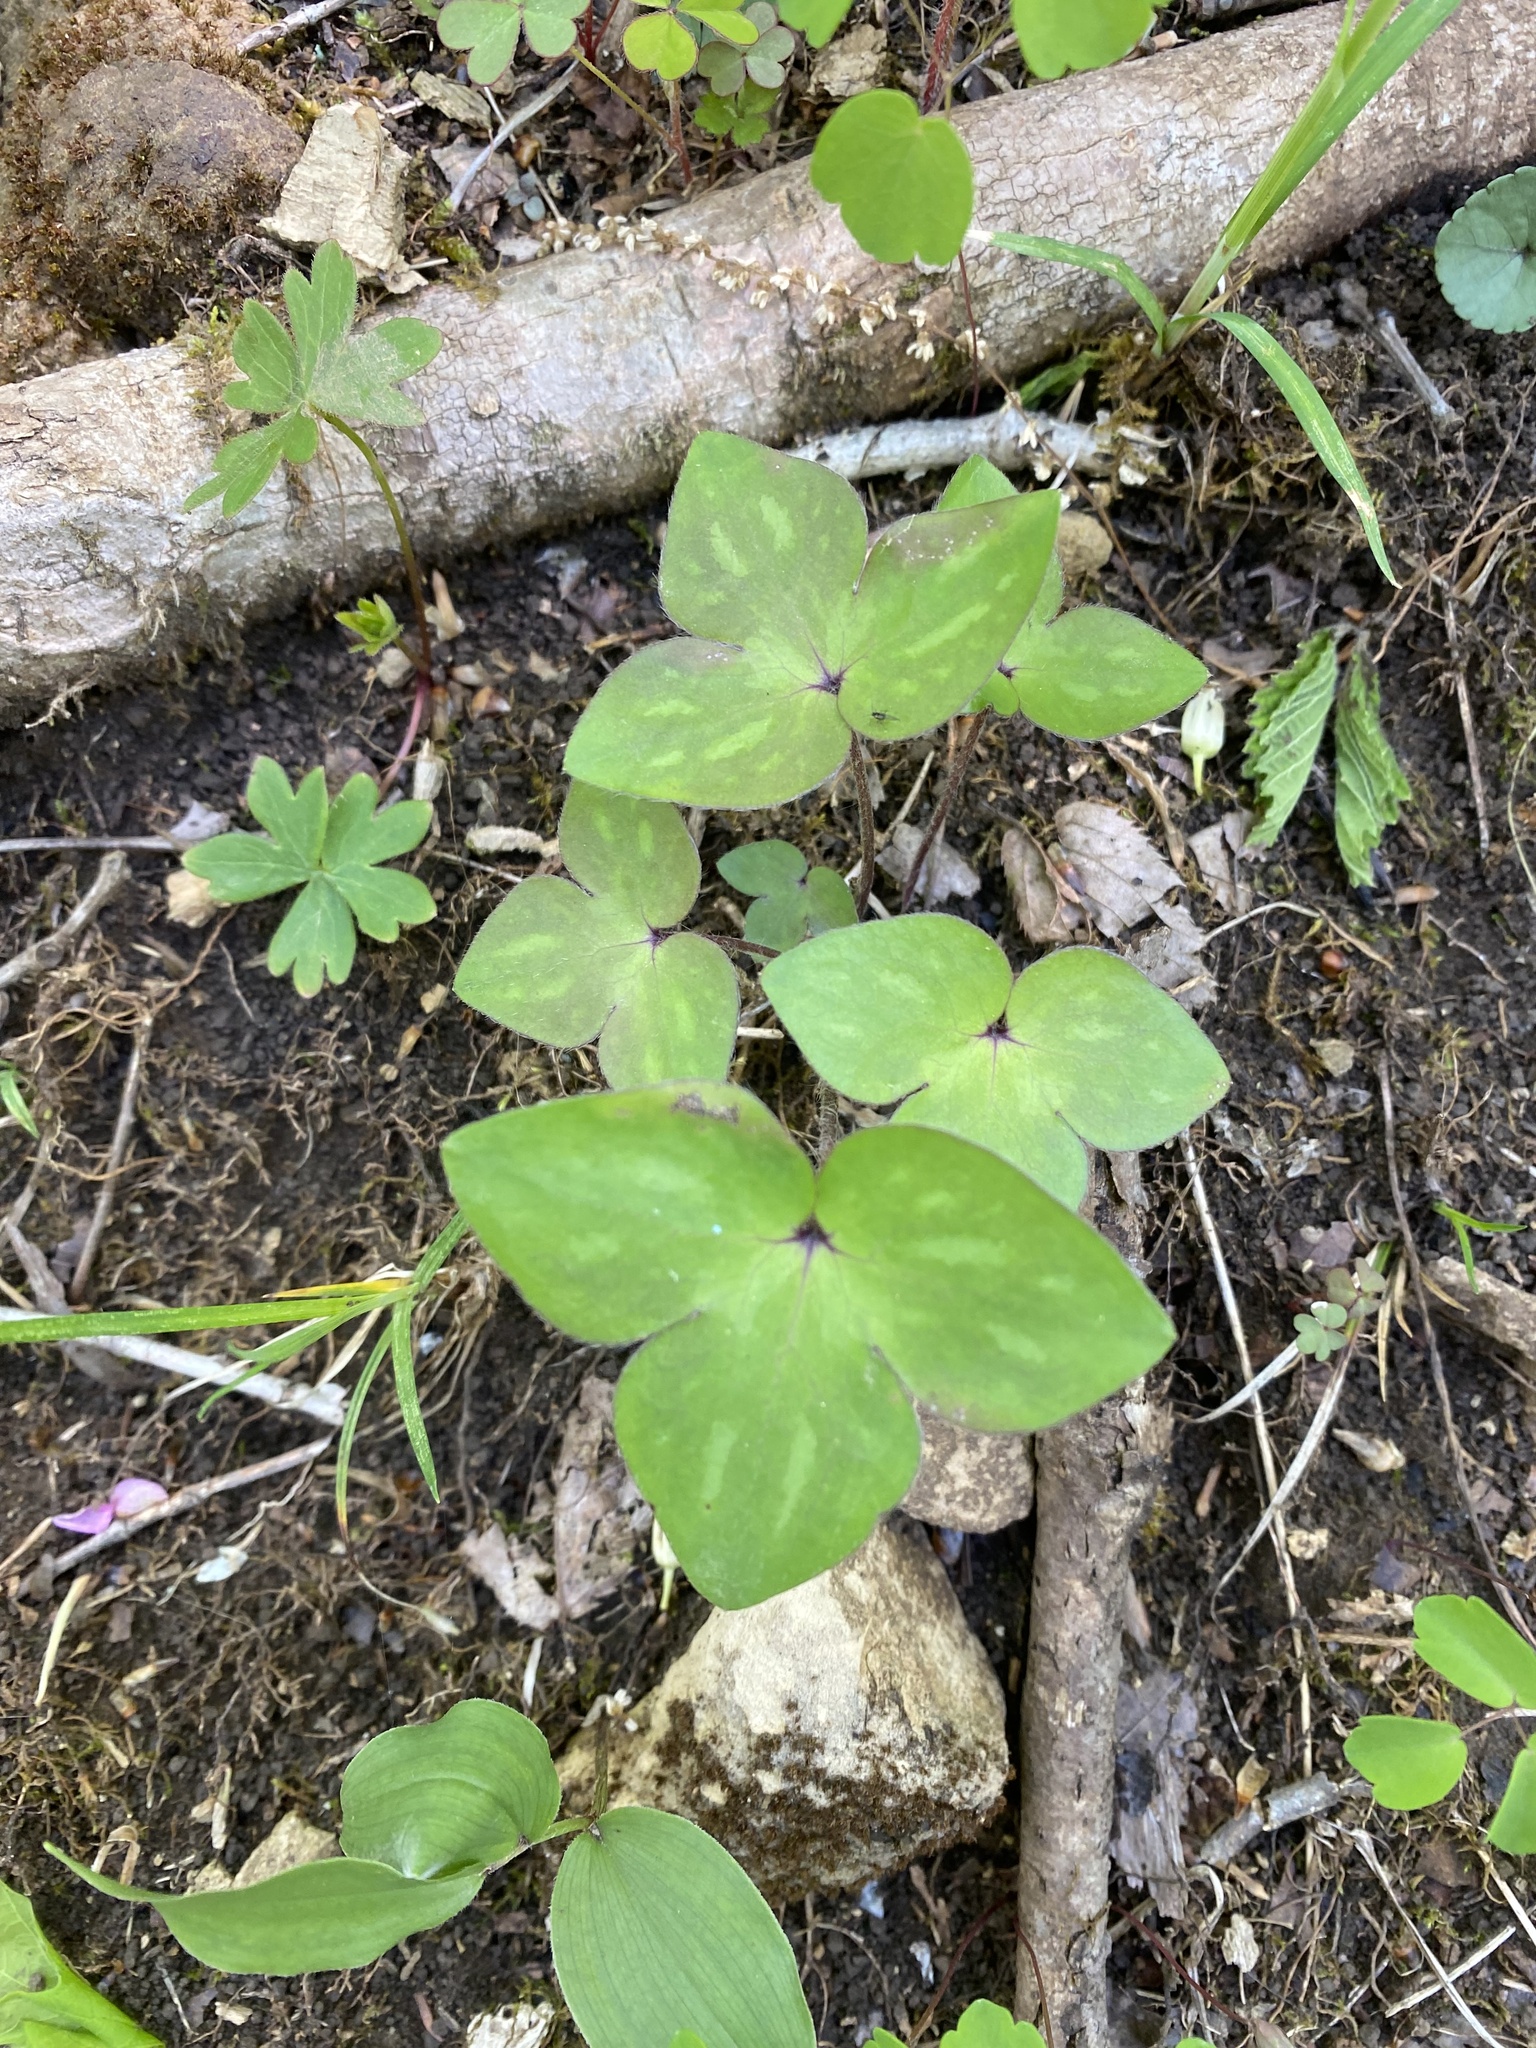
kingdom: Plantae
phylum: Tracheophyta
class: Magnoliopsida
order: Ranunculales
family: Ranunculaceae
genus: Hepatica
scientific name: Hepatica acutiloba
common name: Sharp-lobed hepatica
